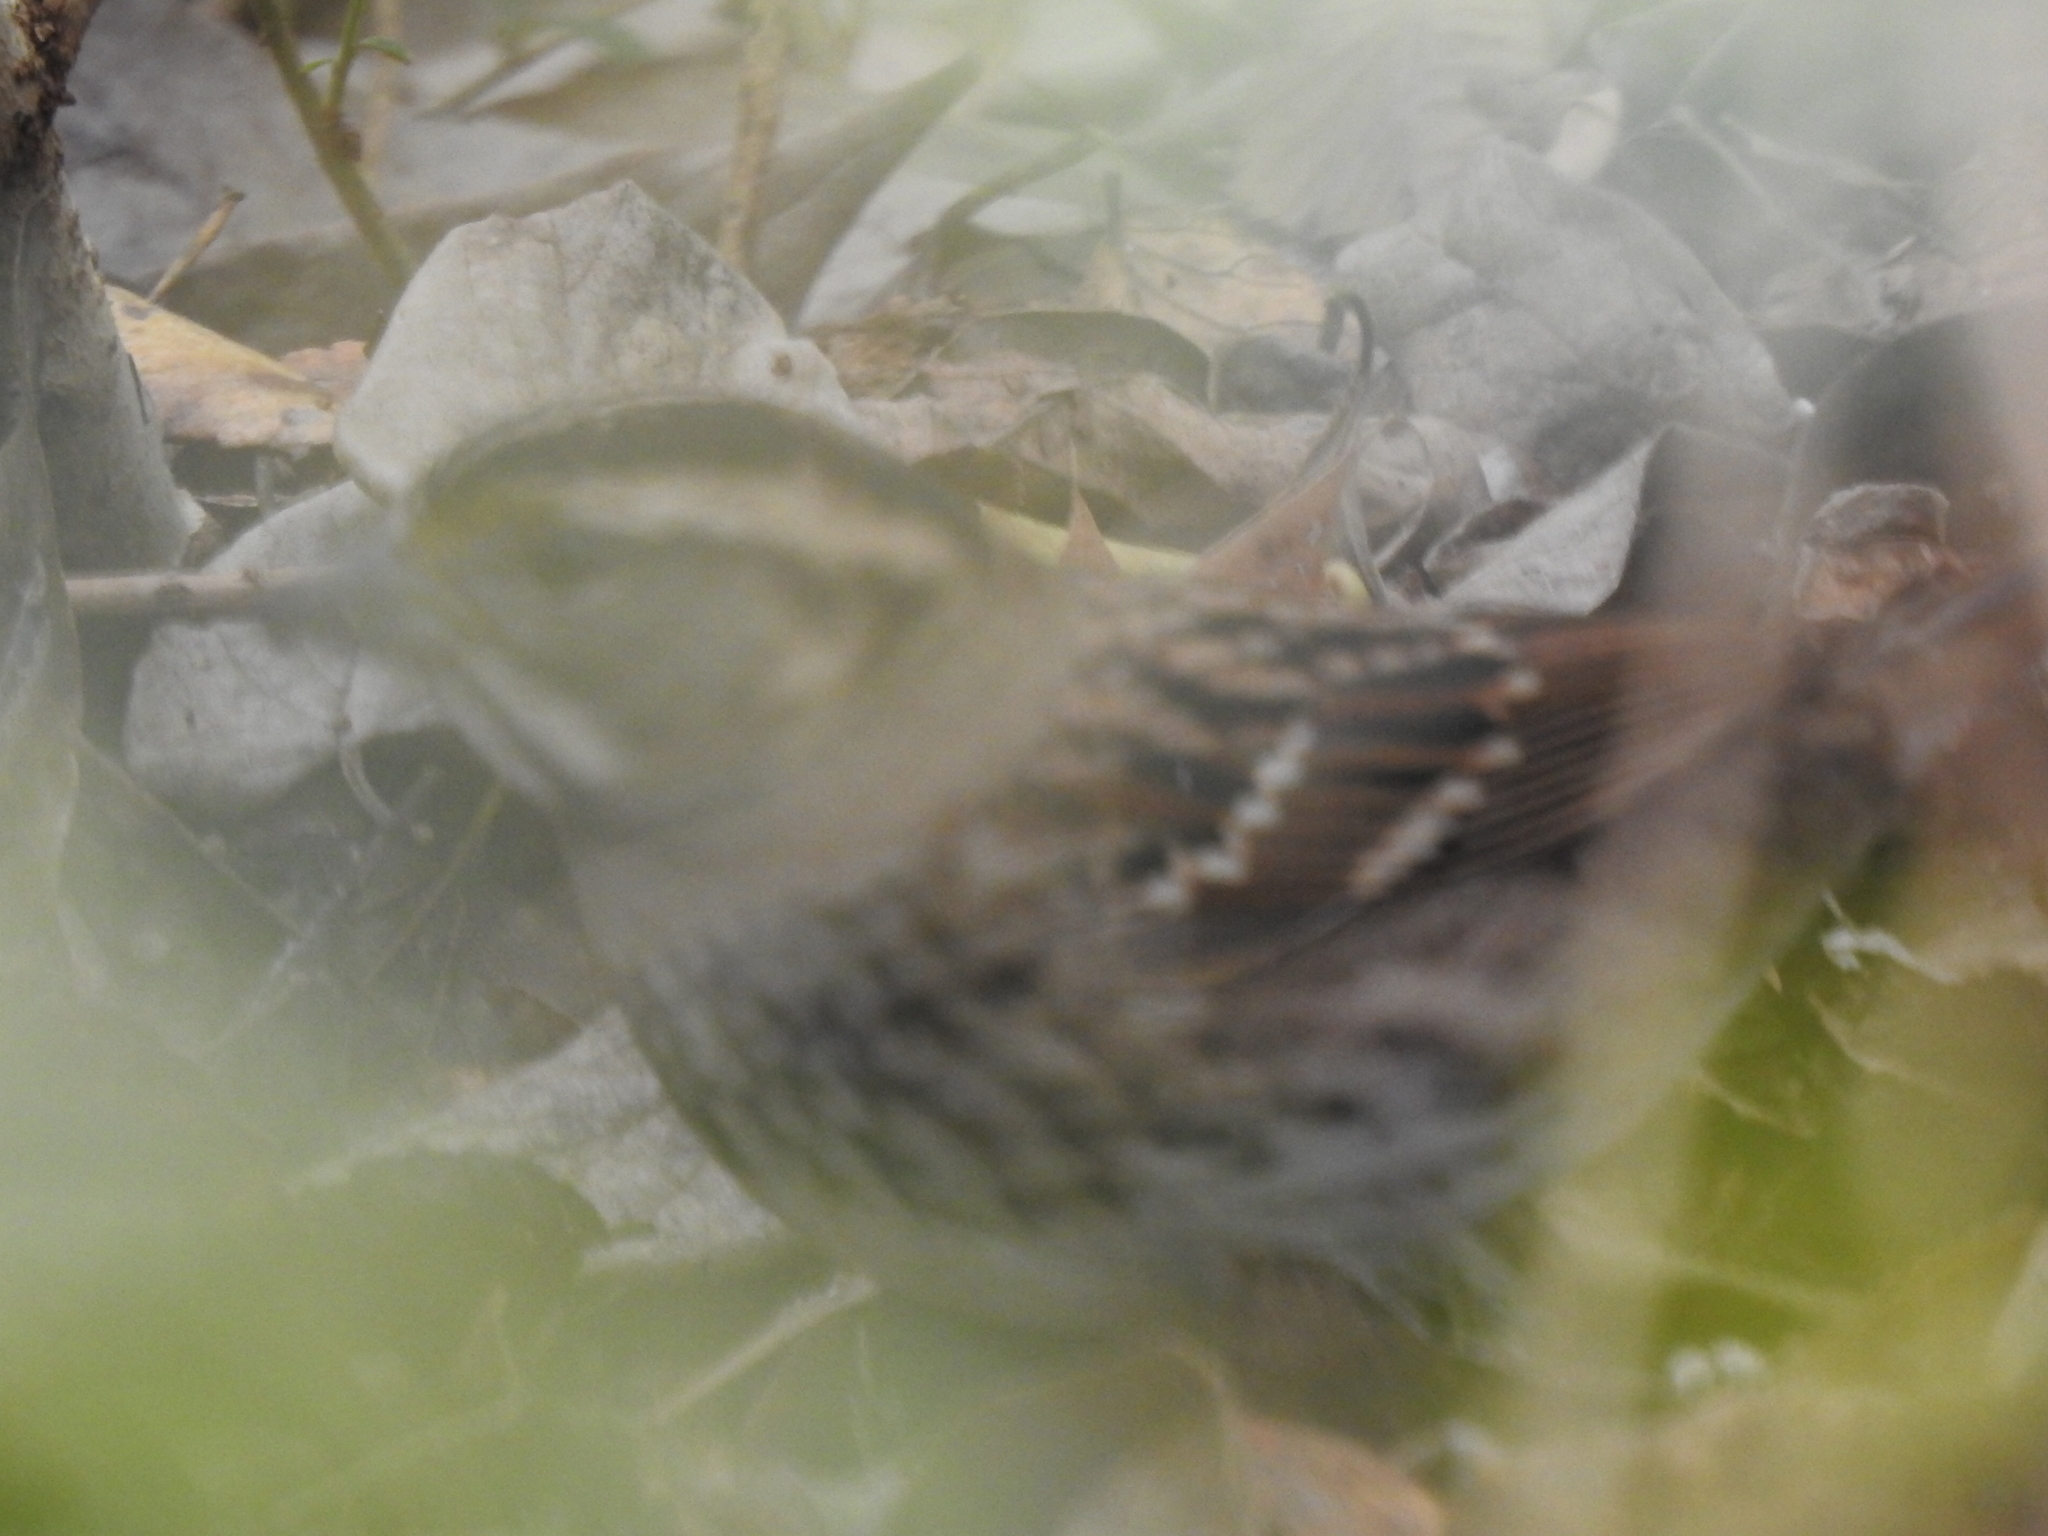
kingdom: Animalia
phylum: Chordata
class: Aves
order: Passeriformes
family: Passerellidae
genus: Zonotrichia
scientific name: Zonotrichia albicollis
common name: White-throated sparrow
